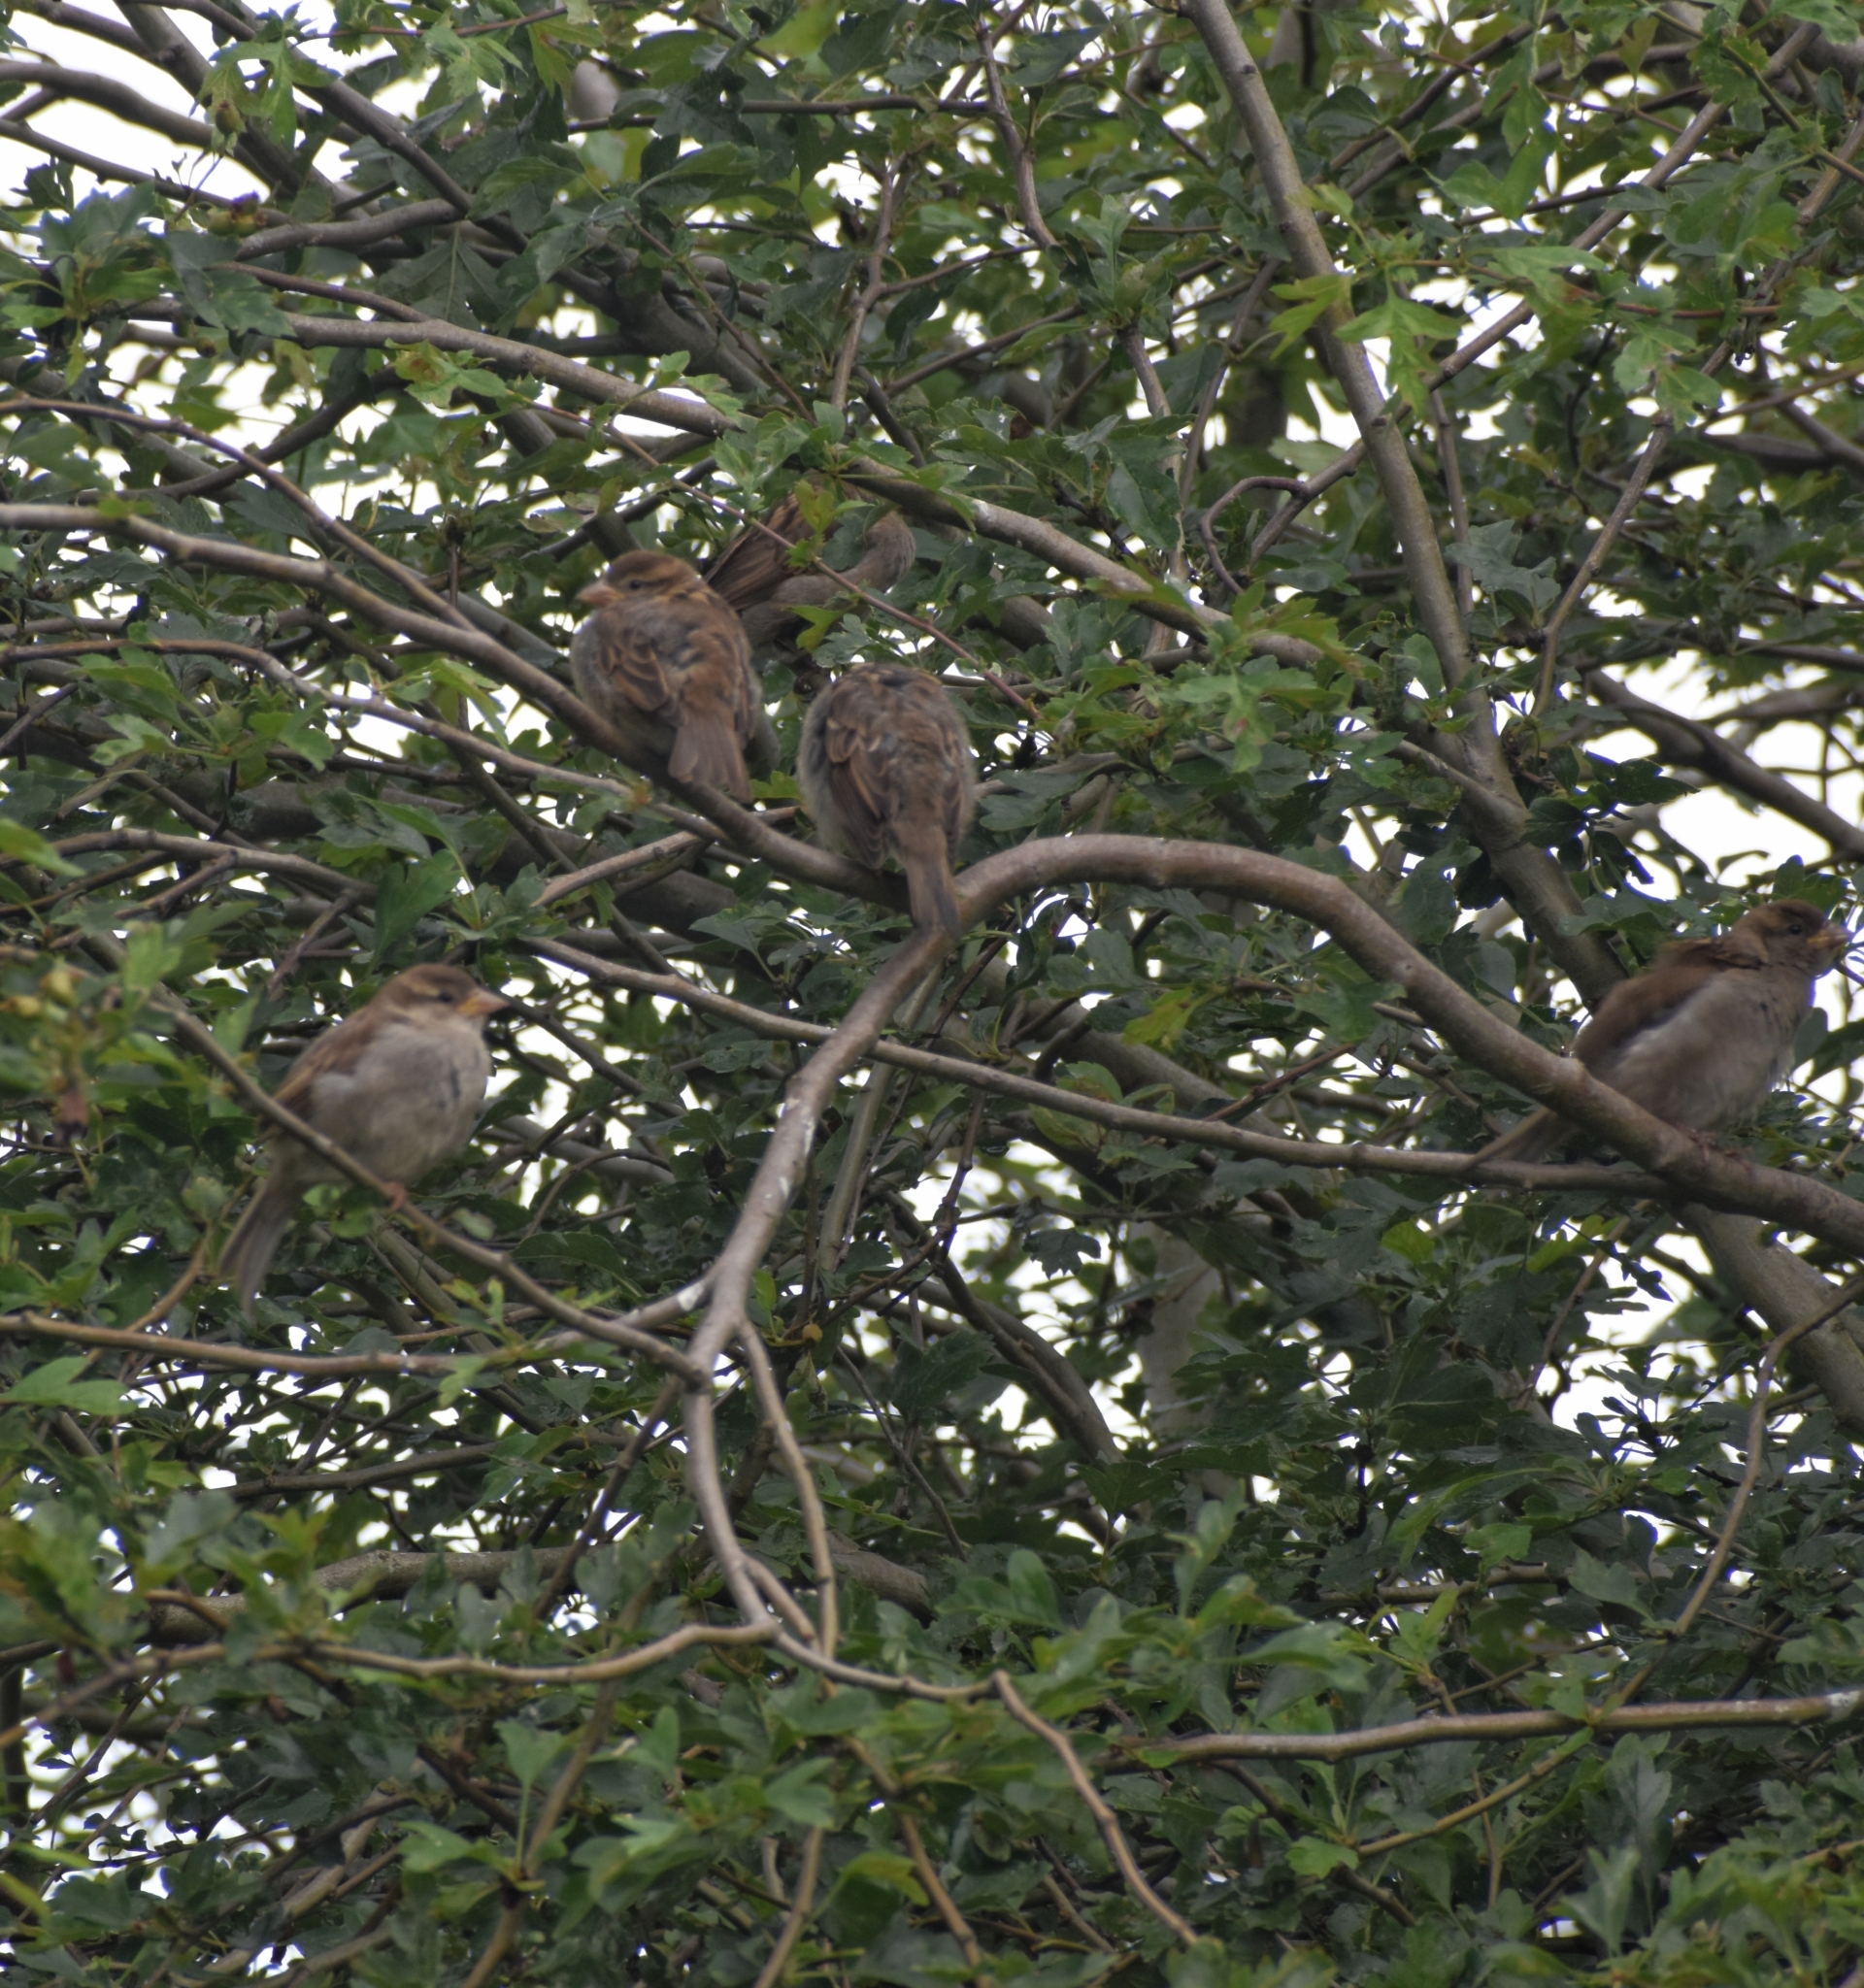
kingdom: Animalia
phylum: Chordata
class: Aves
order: Passeriformes
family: Passeridae
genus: Passer
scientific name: Passer domesticus
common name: House sparrow
